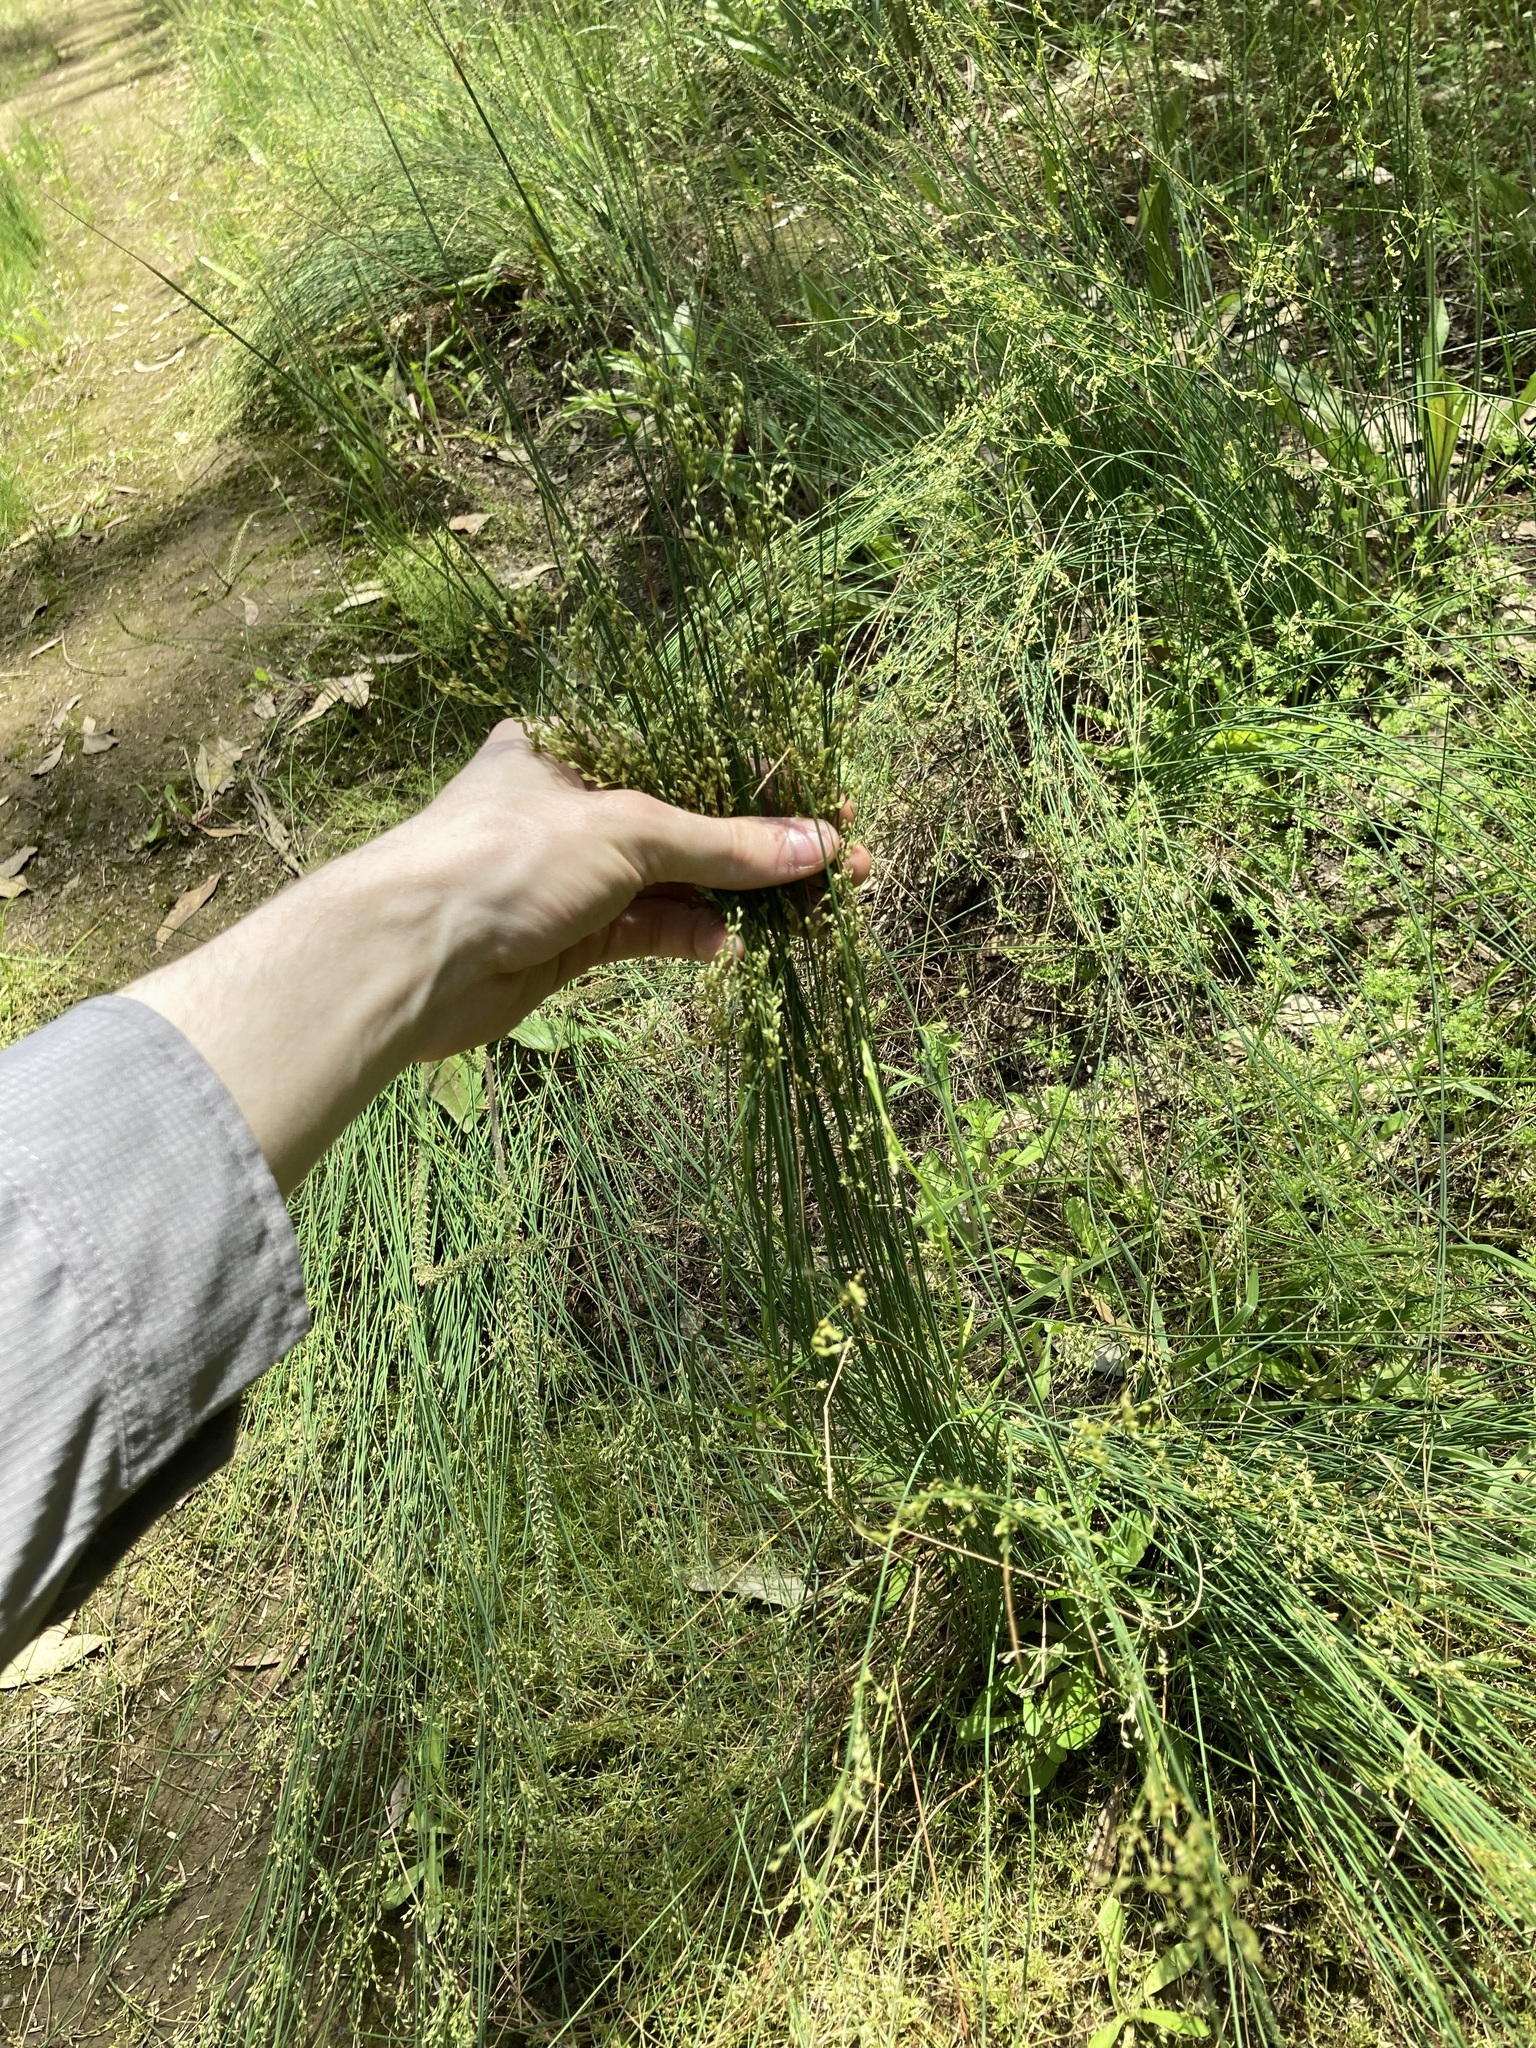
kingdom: Plantae
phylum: Tracheophyta
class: Liliopsida
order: Poales
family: Juncaceae
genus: Juncus
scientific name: Juncus usitatus
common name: Rush
